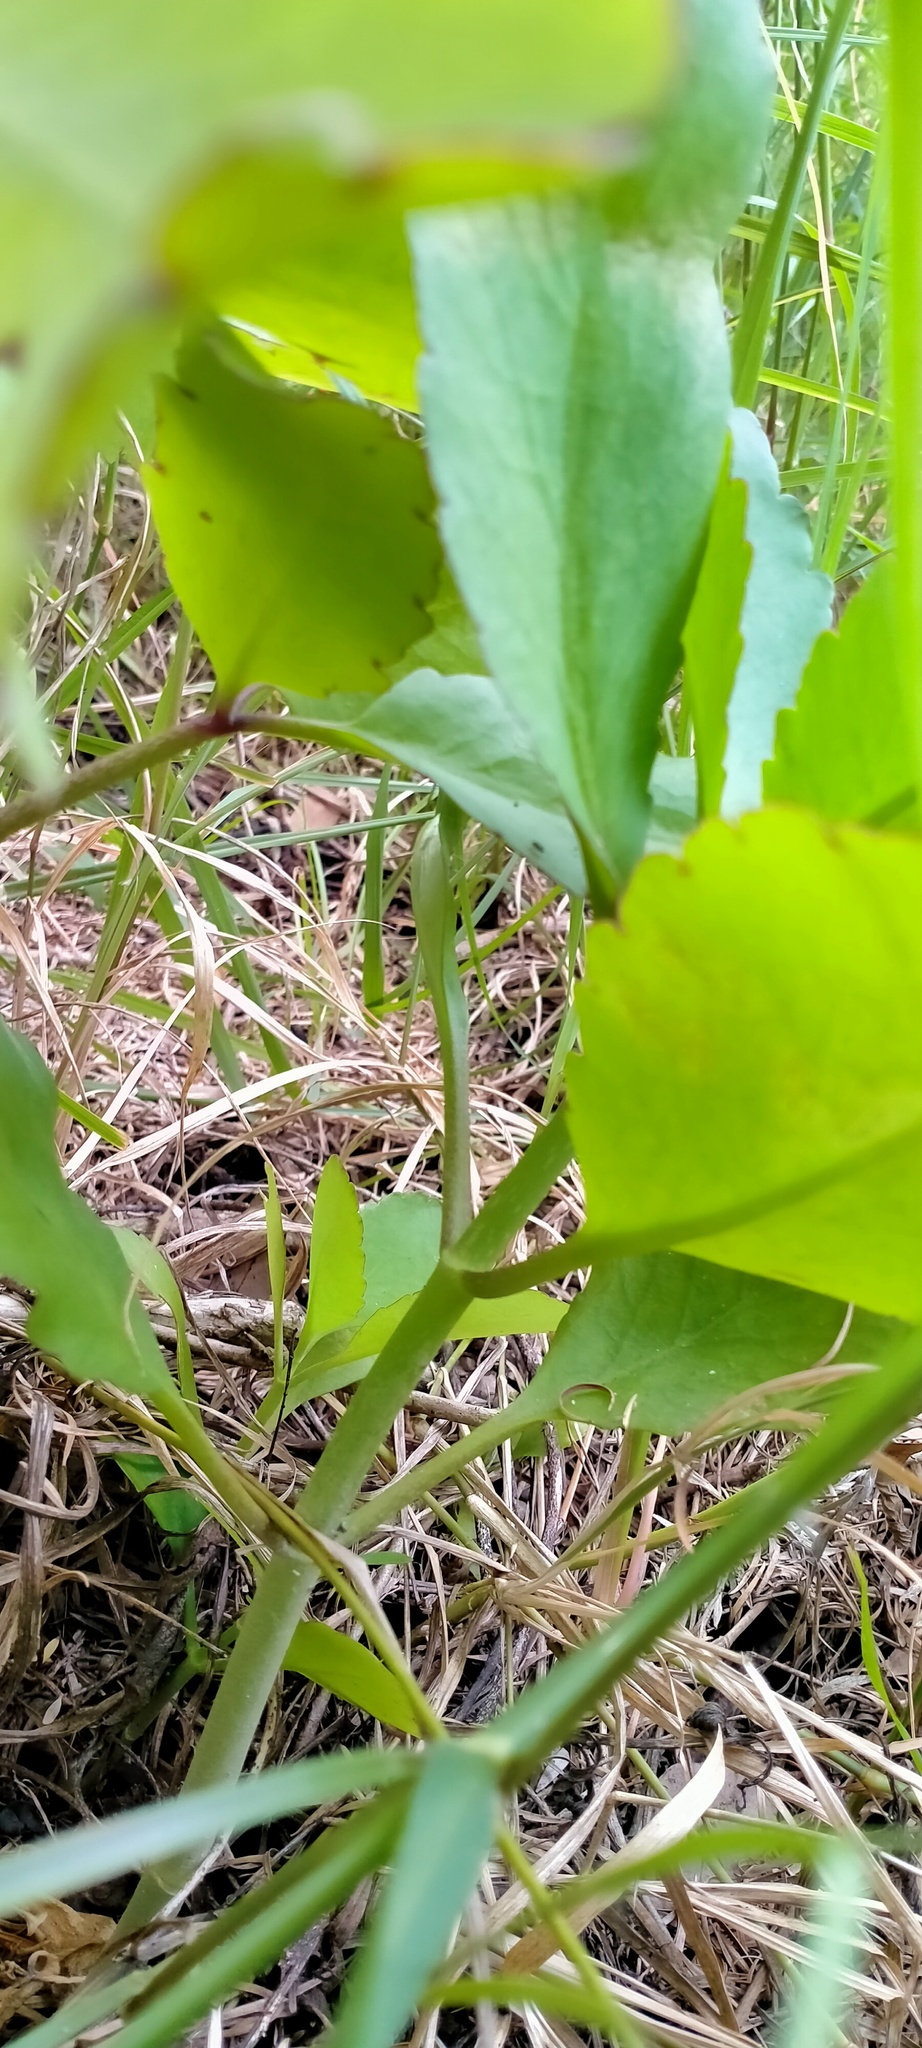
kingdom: Plantae
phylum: Tracheophyta
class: Magnoliopsida
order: Saxifragales
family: Crassulaceae
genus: Kalanchoe
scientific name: Kalanchoe pinnata
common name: Cathedral bells
